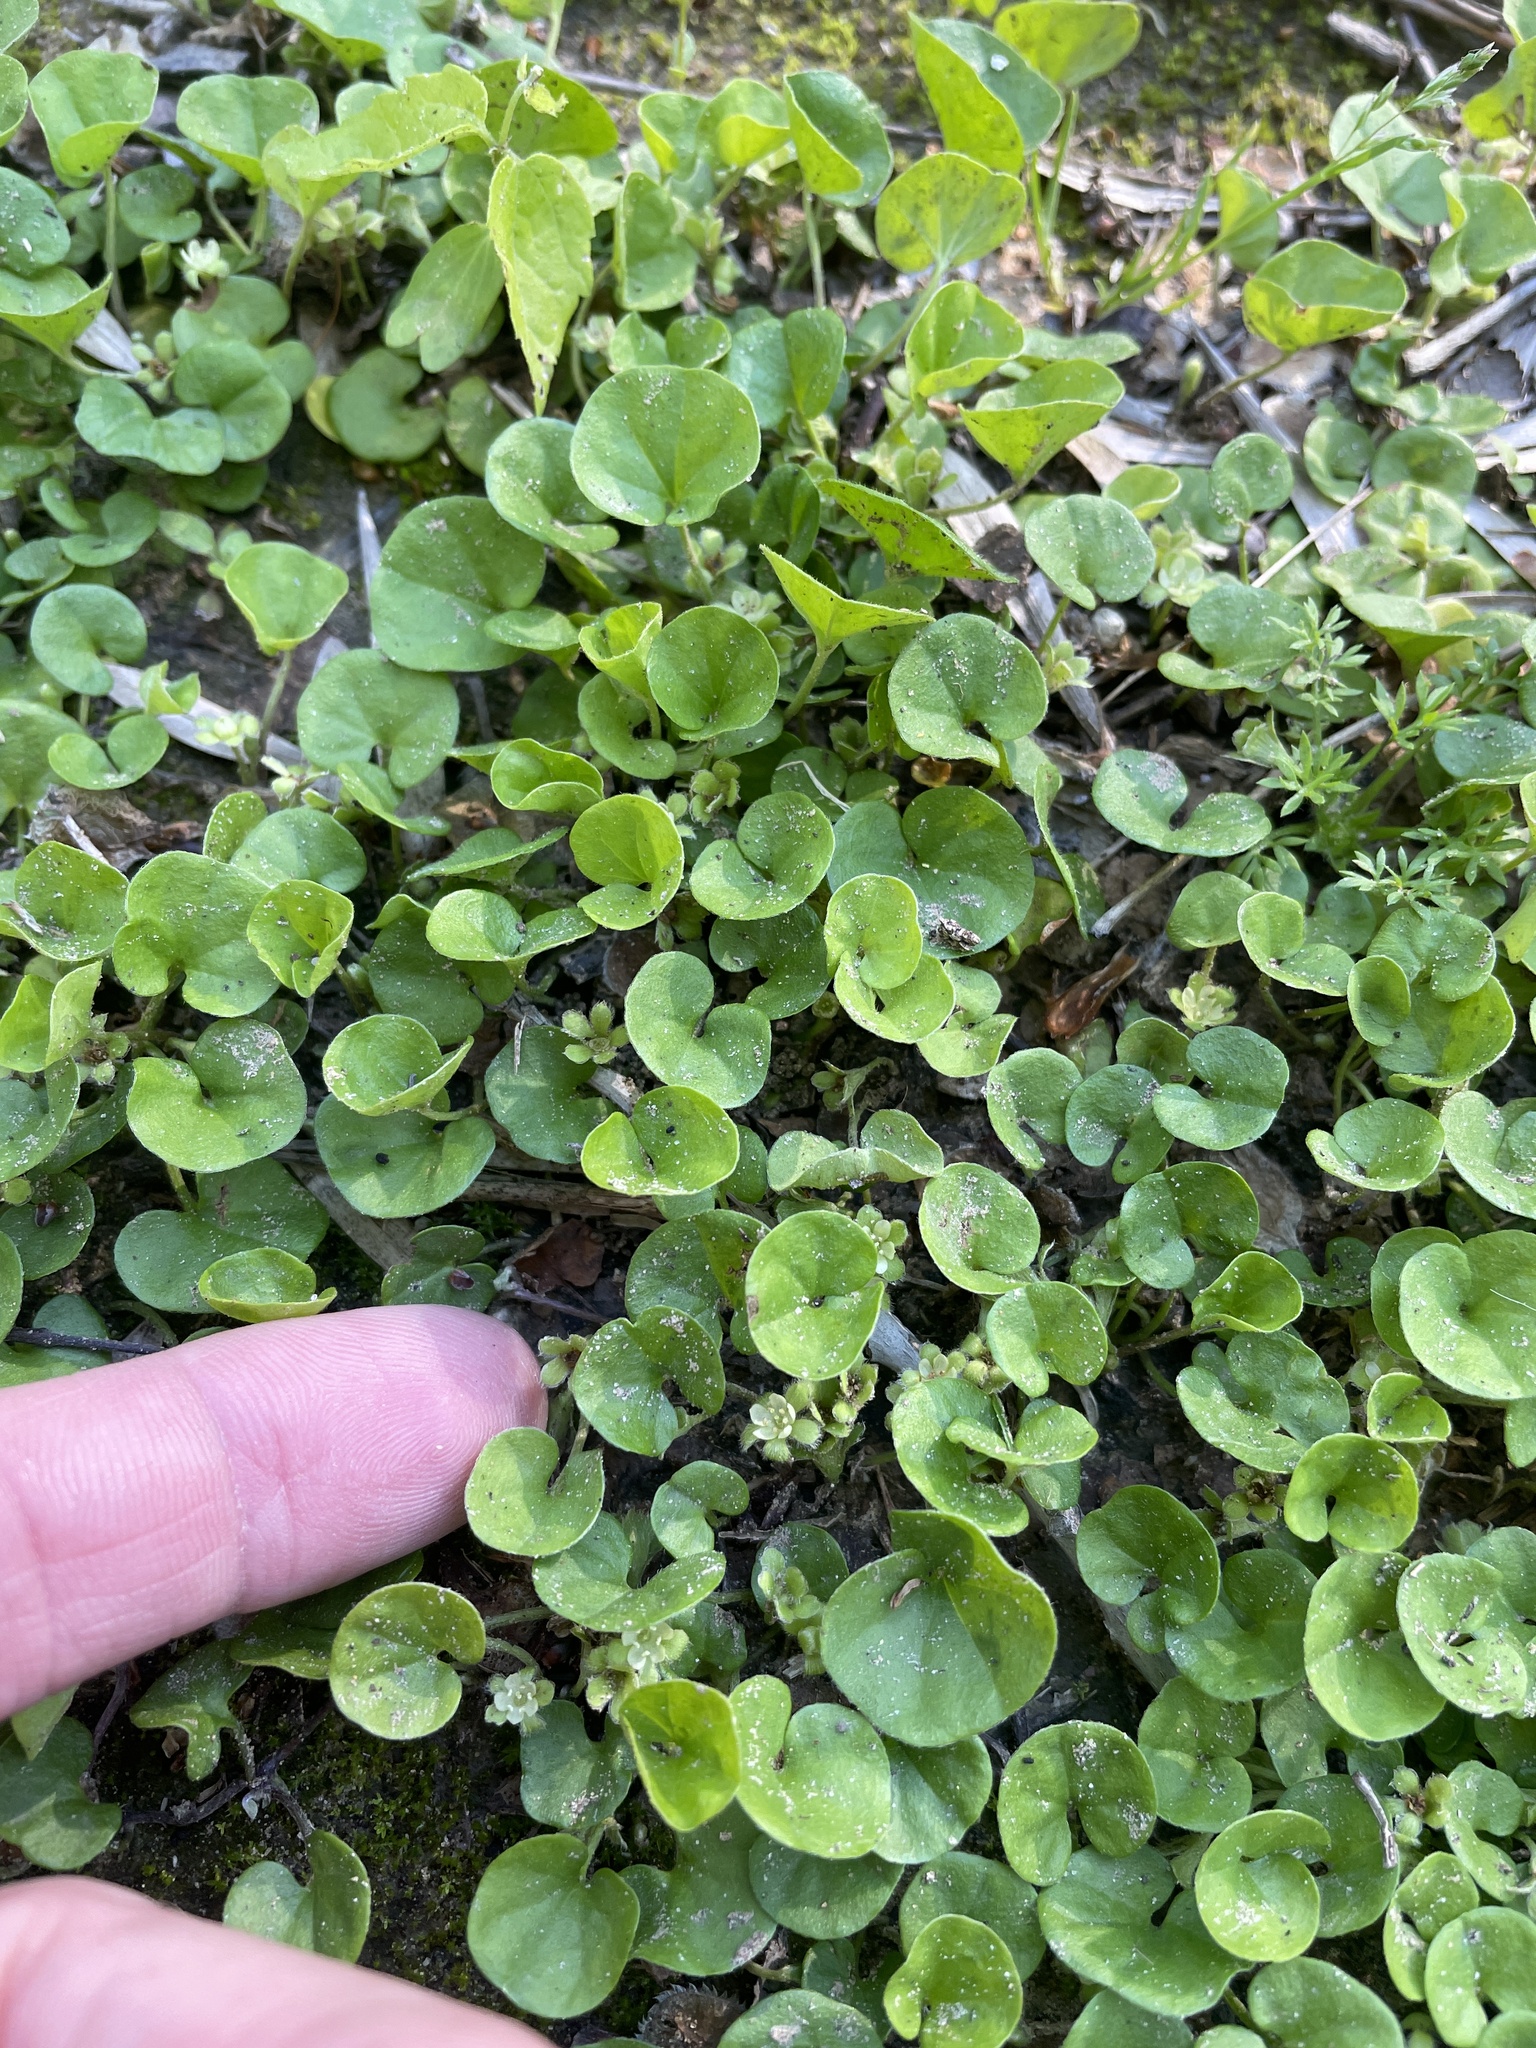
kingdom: Plantae
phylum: Tracheophyta
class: Magnoliopsida
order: Solanales
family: Convolvulaceae
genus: Dichondra
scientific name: Dichondra carolinensis
